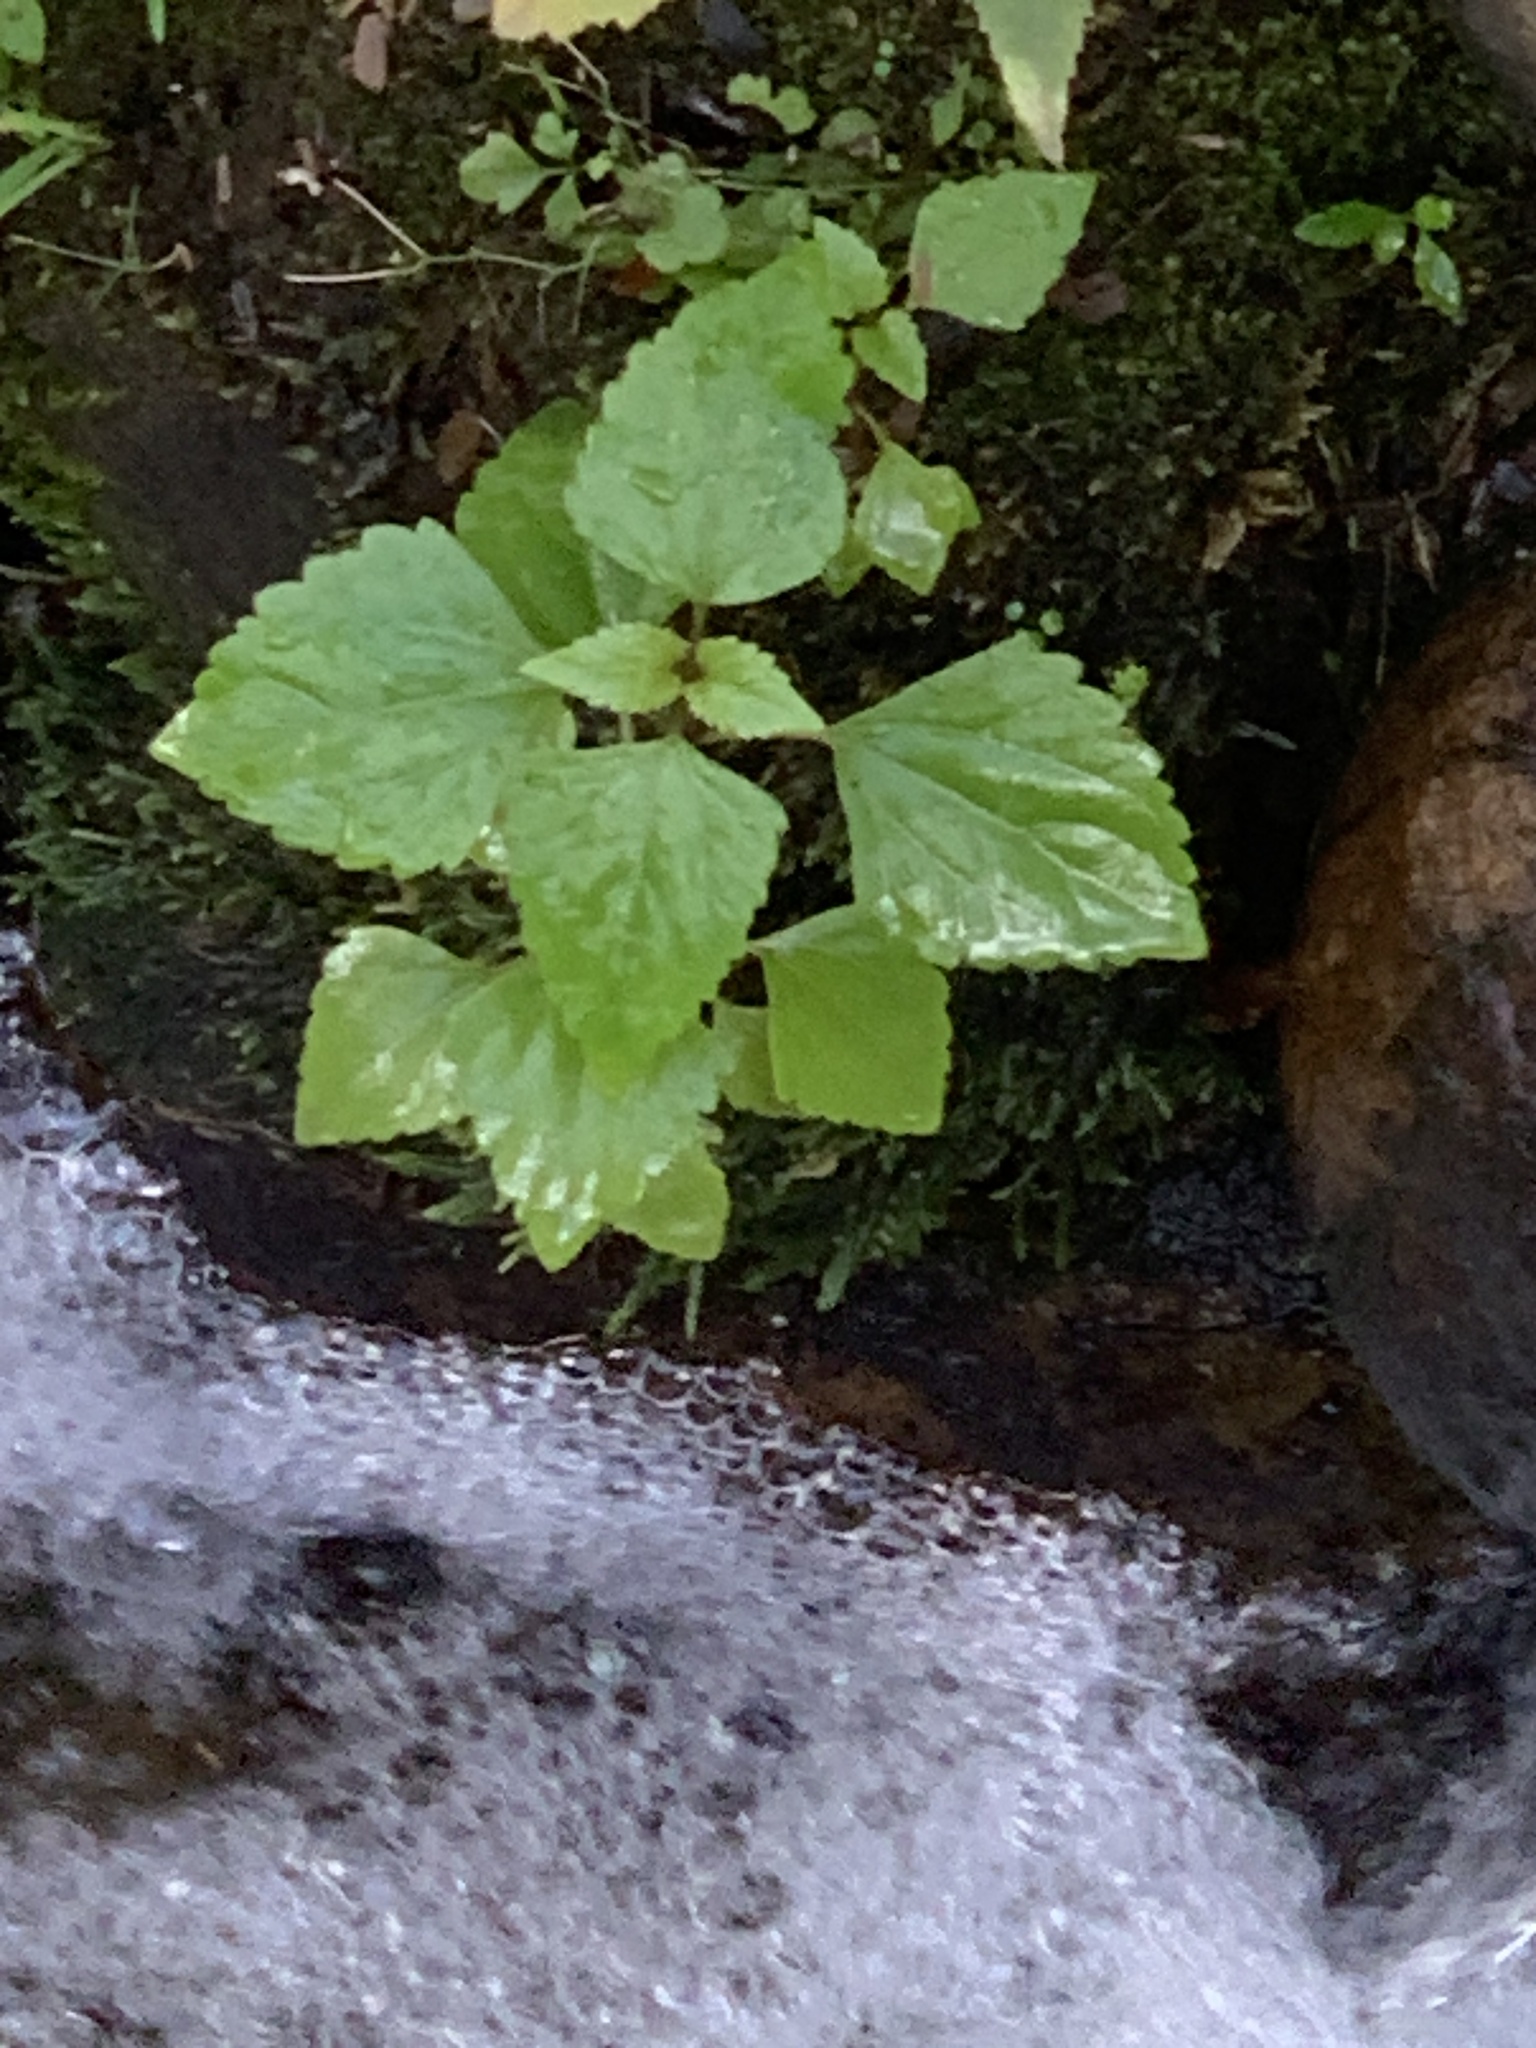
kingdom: Plantae
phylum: Tracheophyta
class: Magnoliopsida
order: Asterales
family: Asteraceae
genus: Ageratina
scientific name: Ageratina adenophora
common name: Sticky snakeroot
